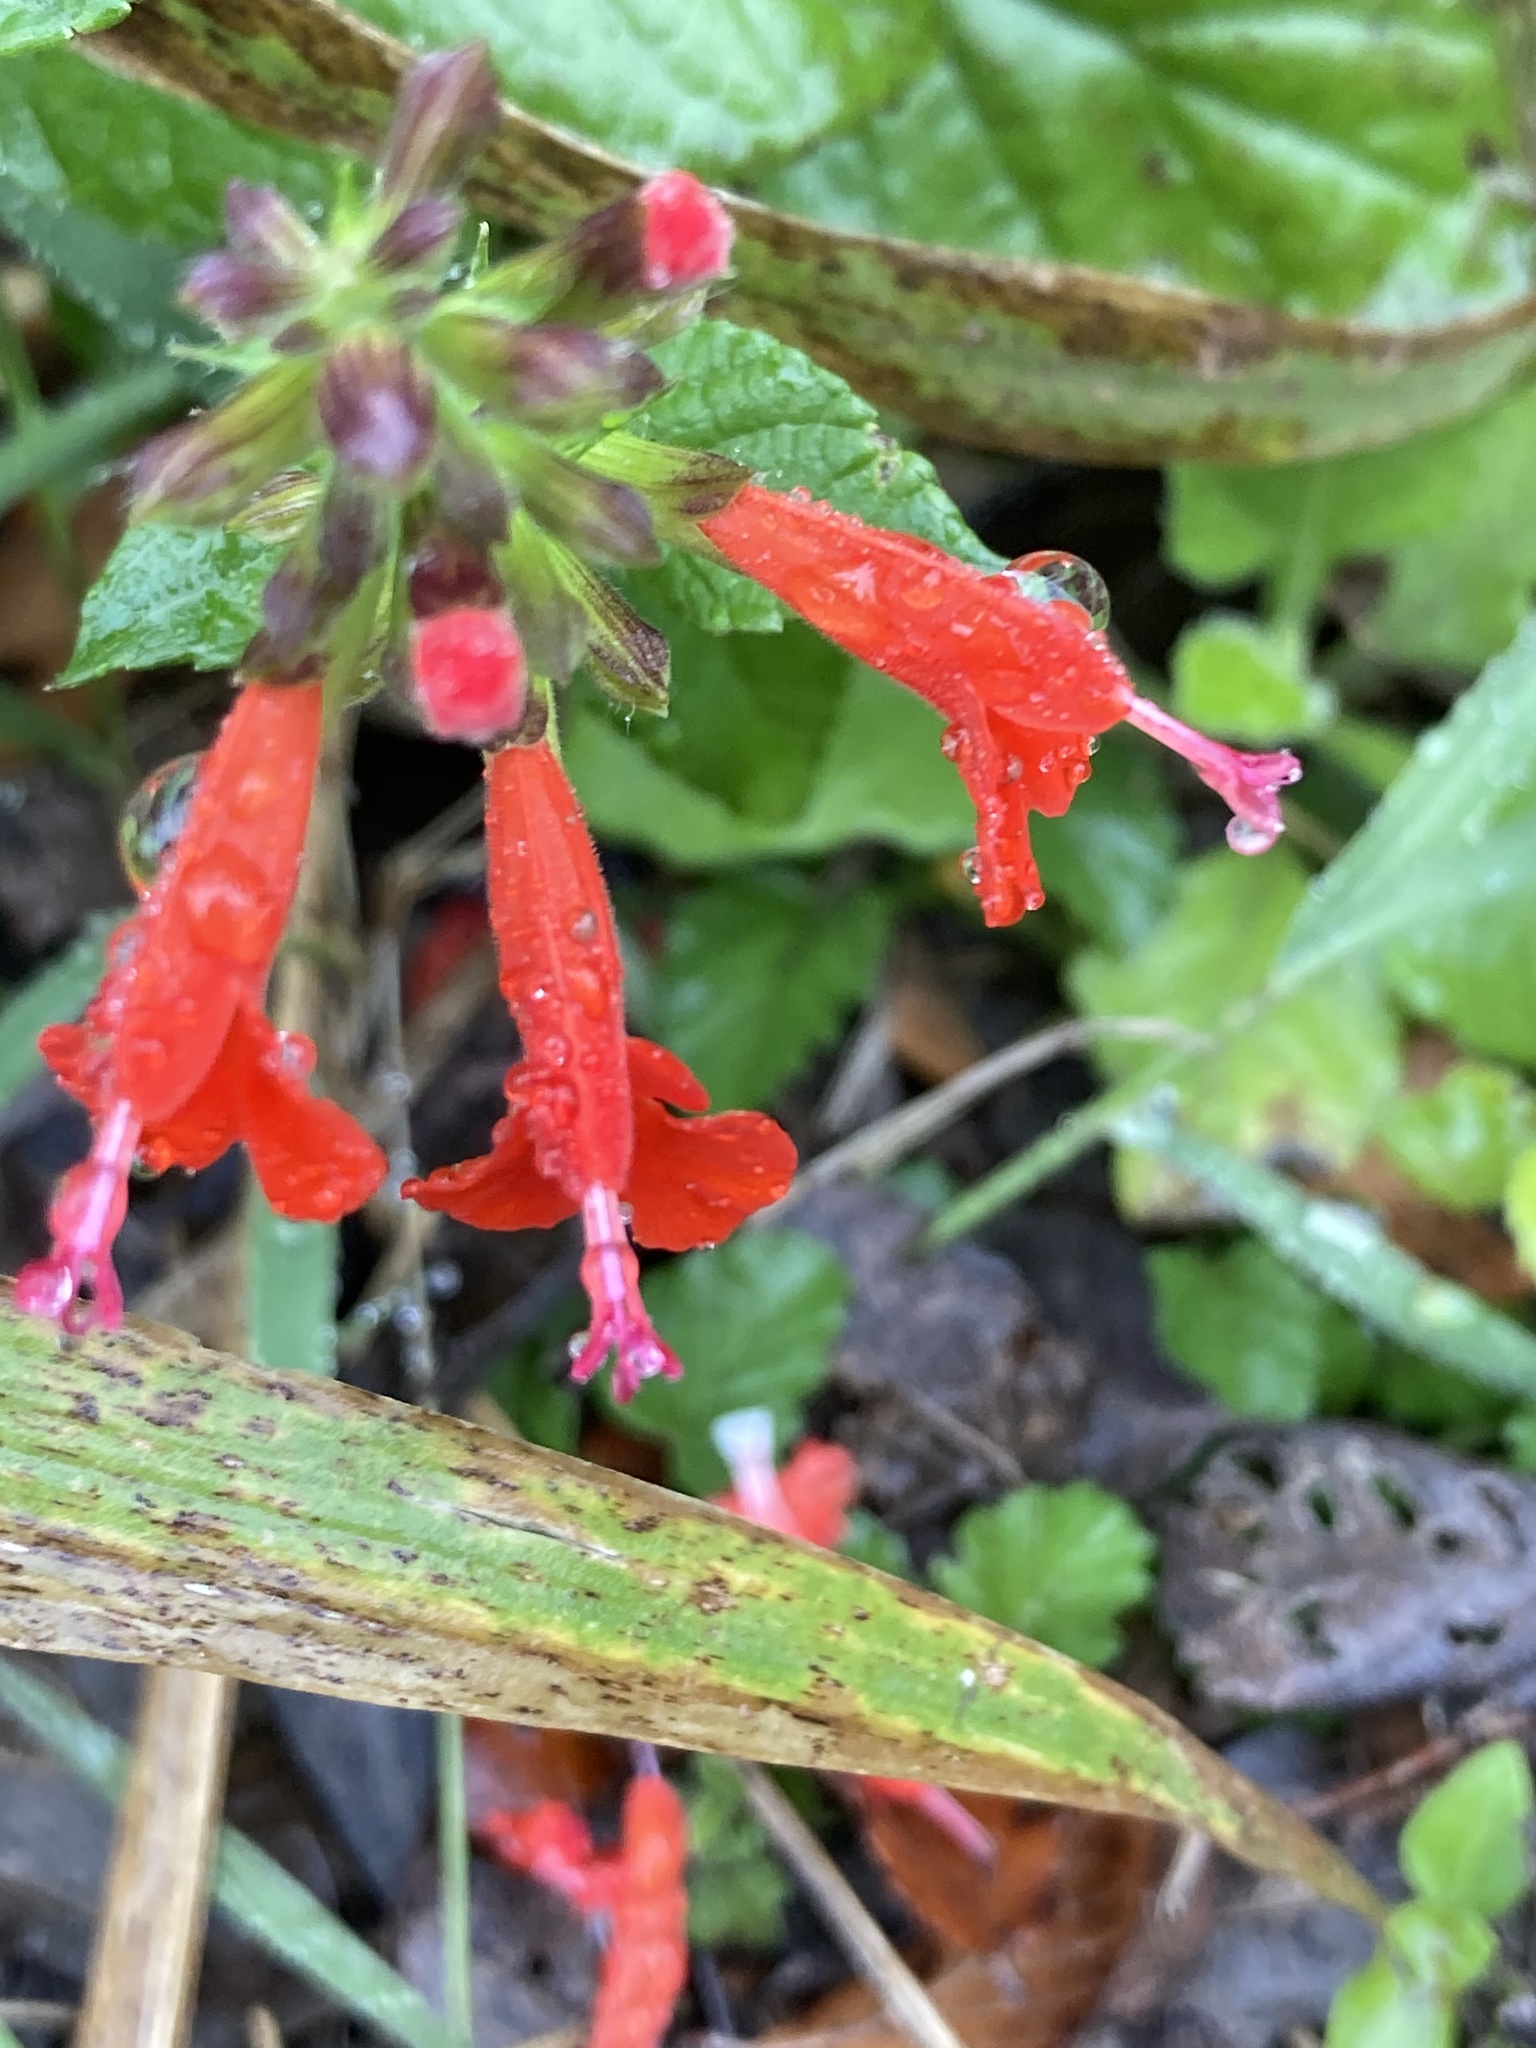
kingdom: Plantae
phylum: Tracheophyta
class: Magnoliopsida
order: Lamiales
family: Lamiaceae
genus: Salvia
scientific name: Salvia coccinea
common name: Blood sage
